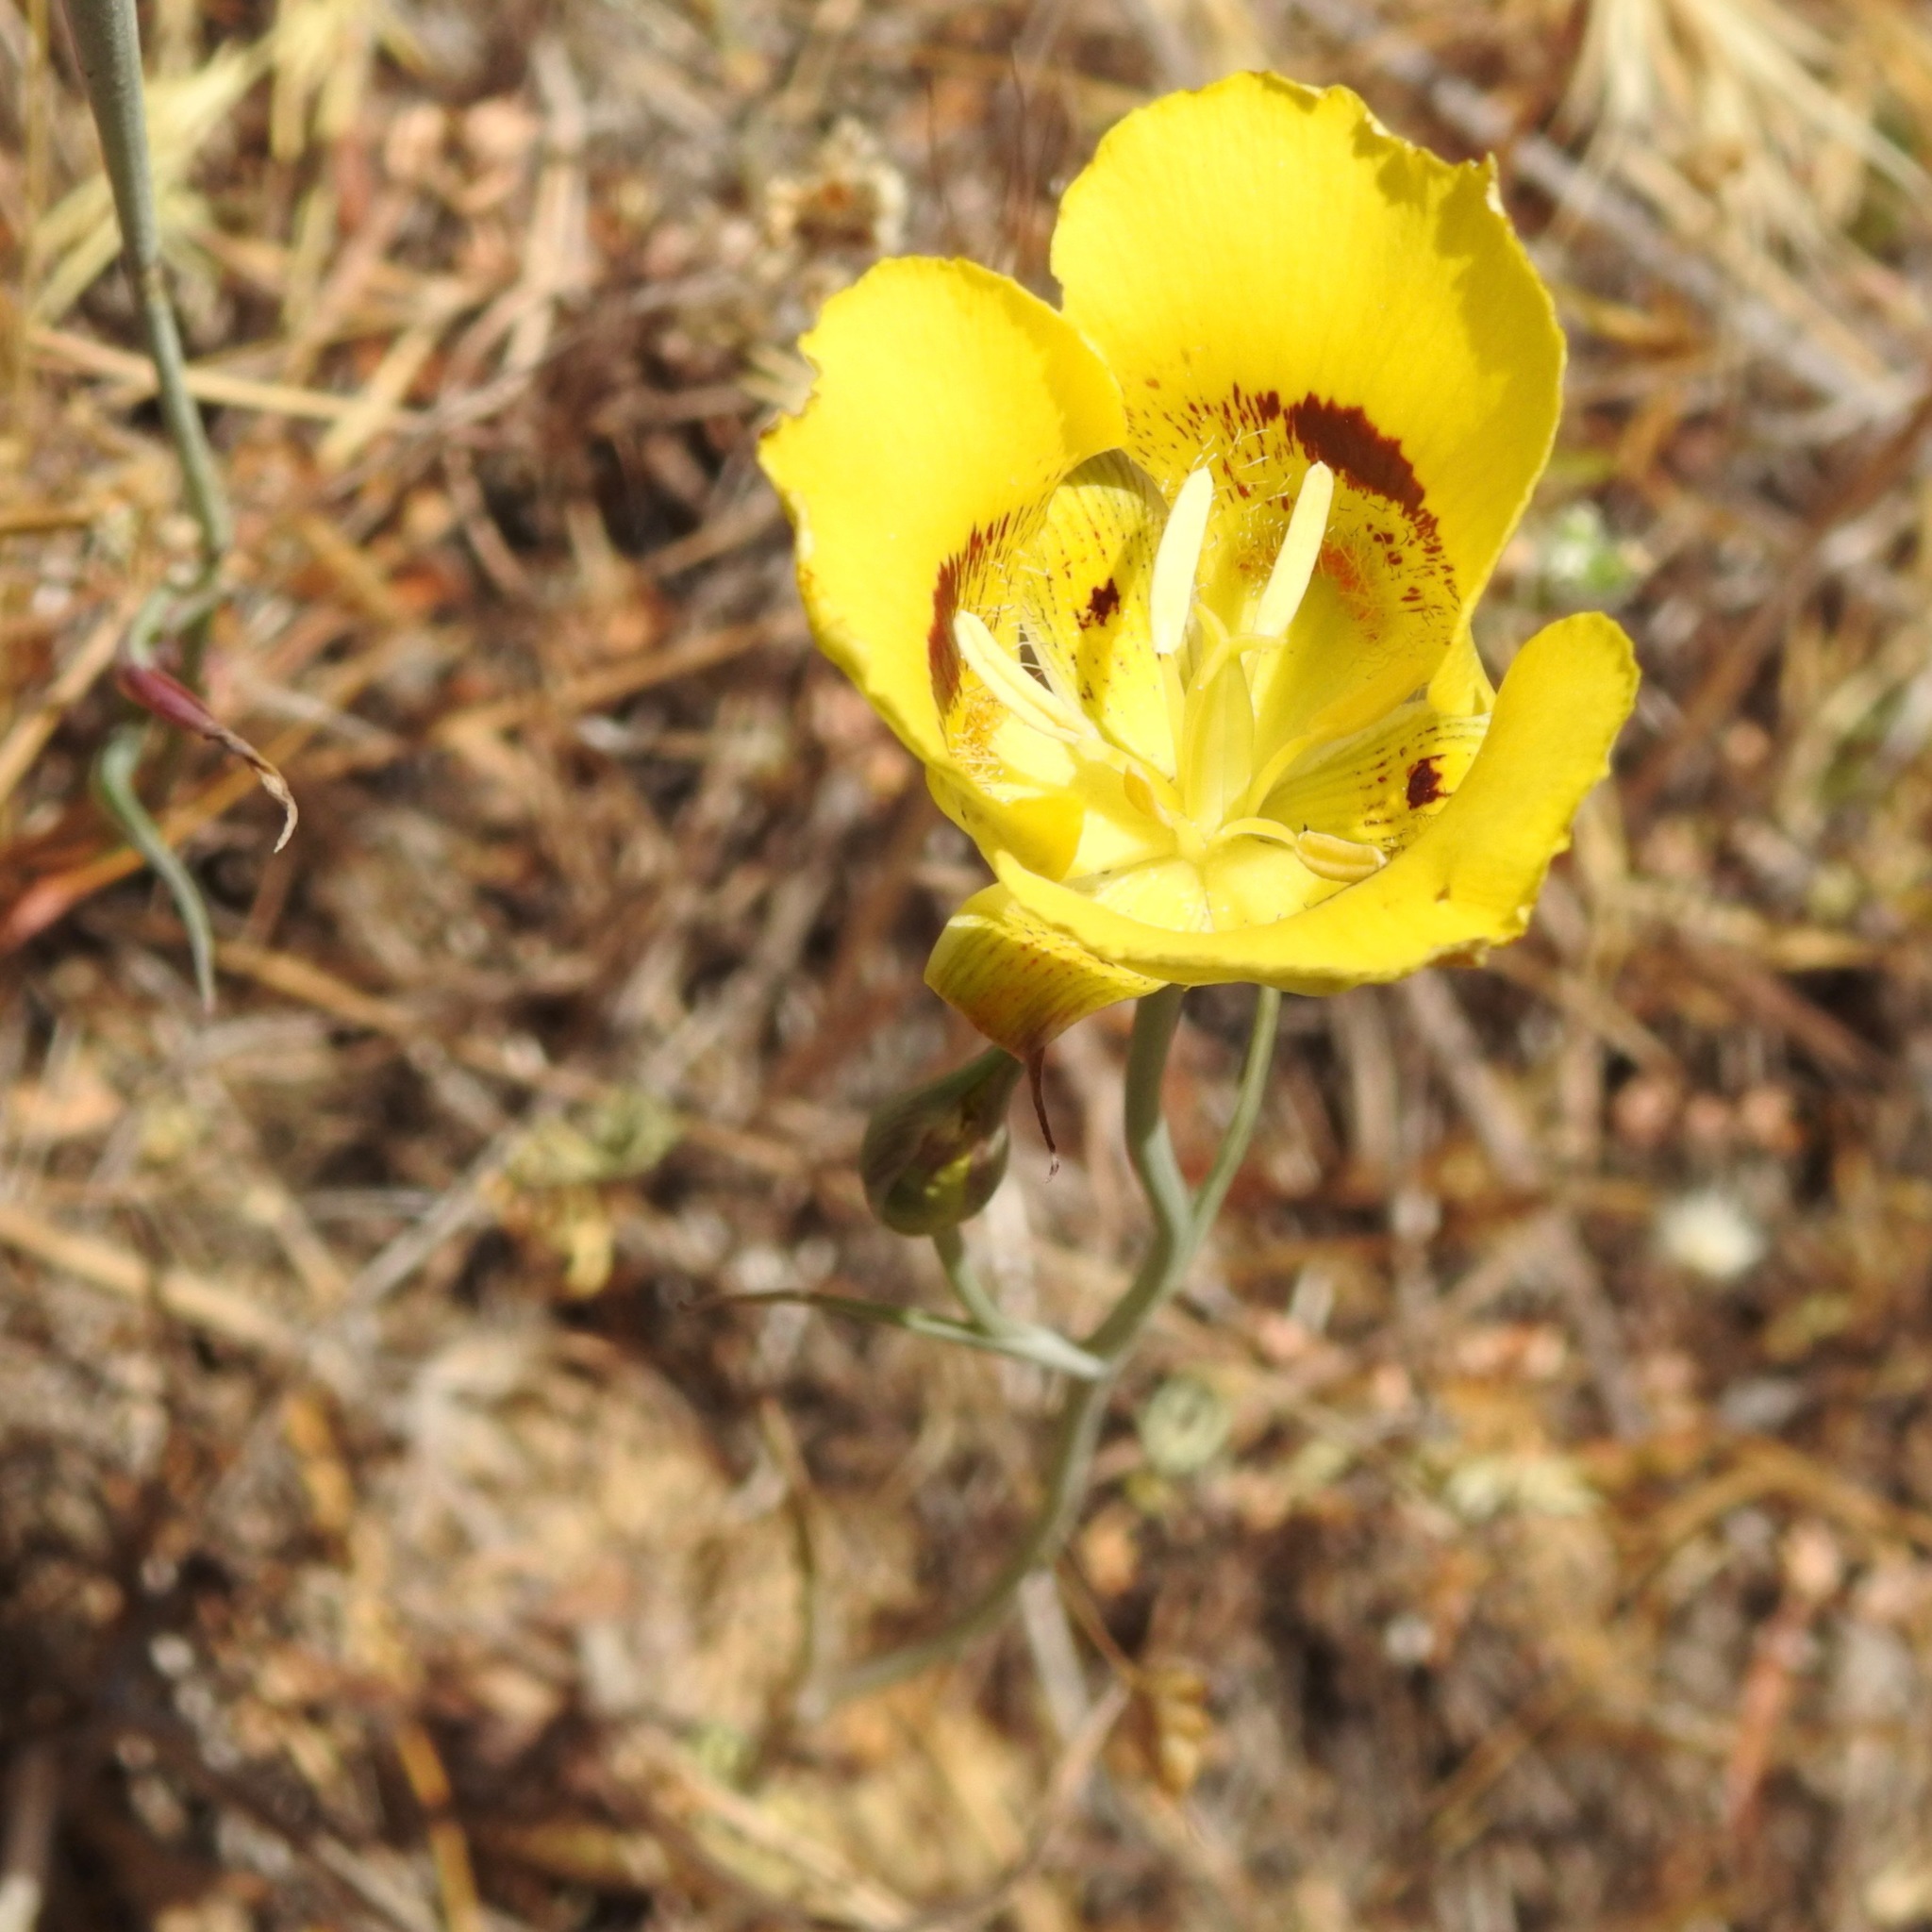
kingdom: Plantae
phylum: Tracheophyta
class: Liliopsida
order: Liliales
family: Liliaceae
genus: Calochortus
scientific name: Calochortus luteus
